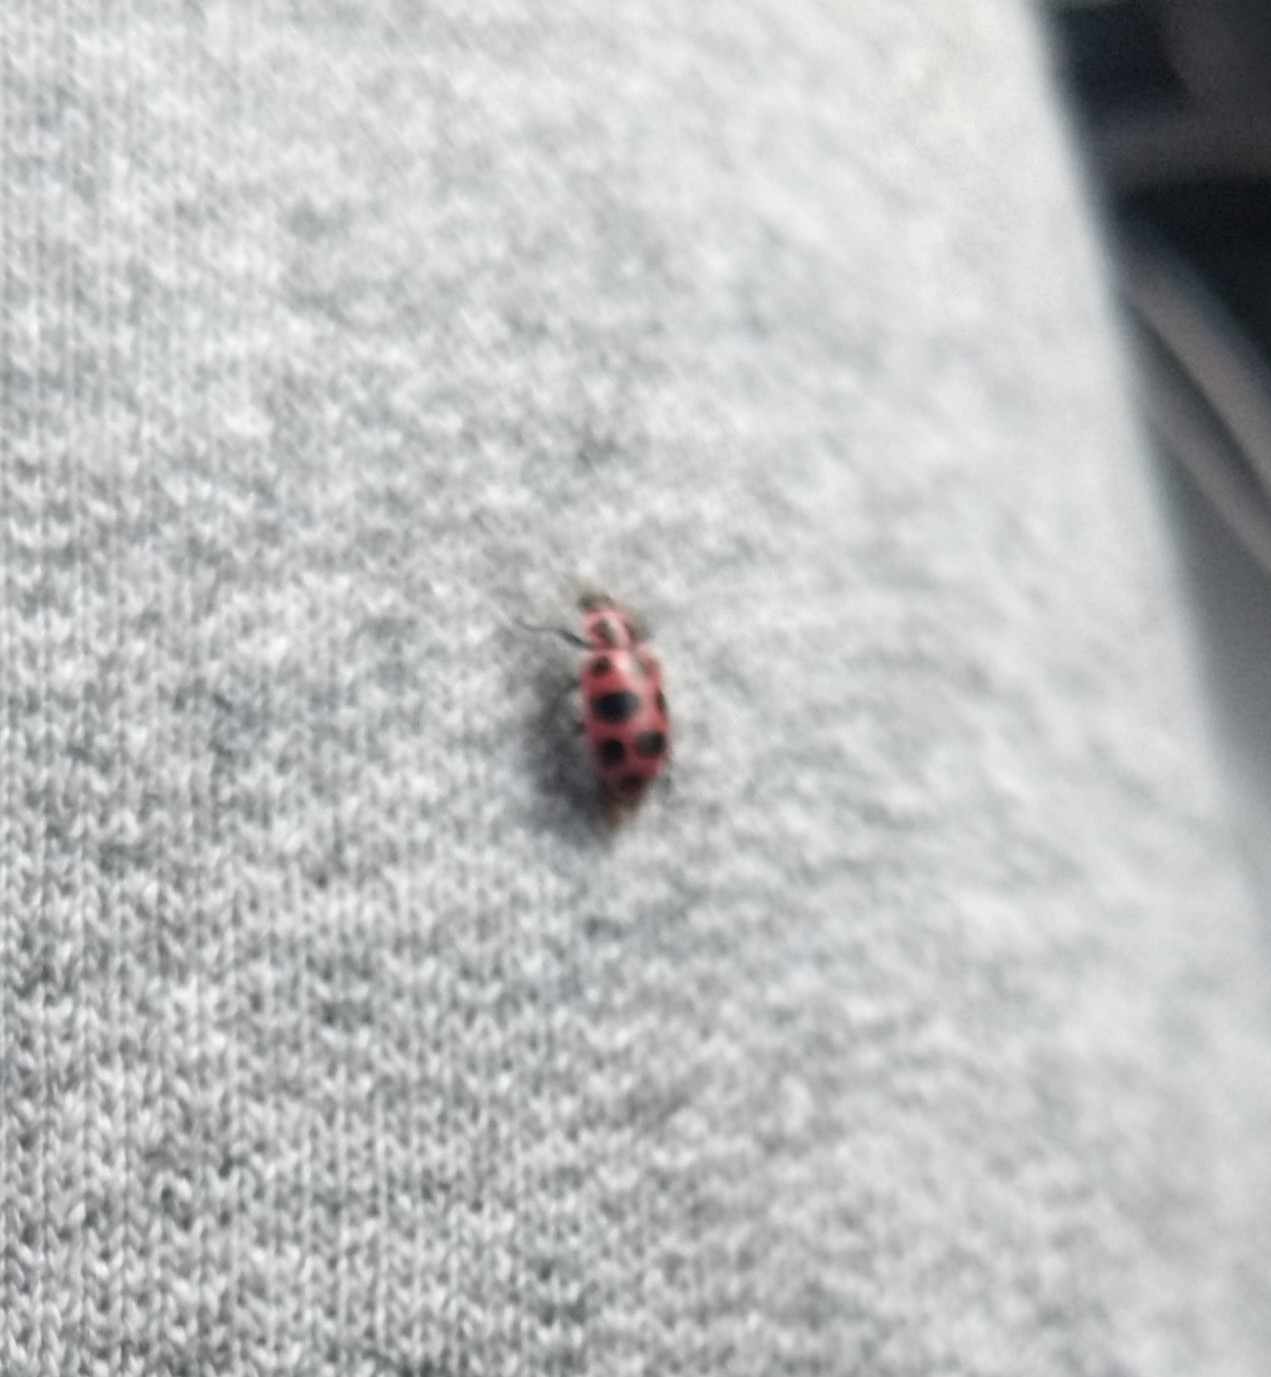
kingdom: Animalia
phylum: Arthropoda
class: Insecta
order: Coleoptera
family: Coccinellidae
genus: Coleomegilla
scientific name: Coleomegilla maculata
